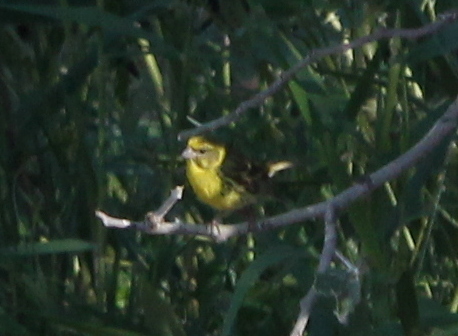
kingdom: Animalia
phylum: Chordata
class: Aves
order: Passeriformes
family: Fringillidae
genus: Serinus
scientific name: Serinus serinus
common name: European serin
